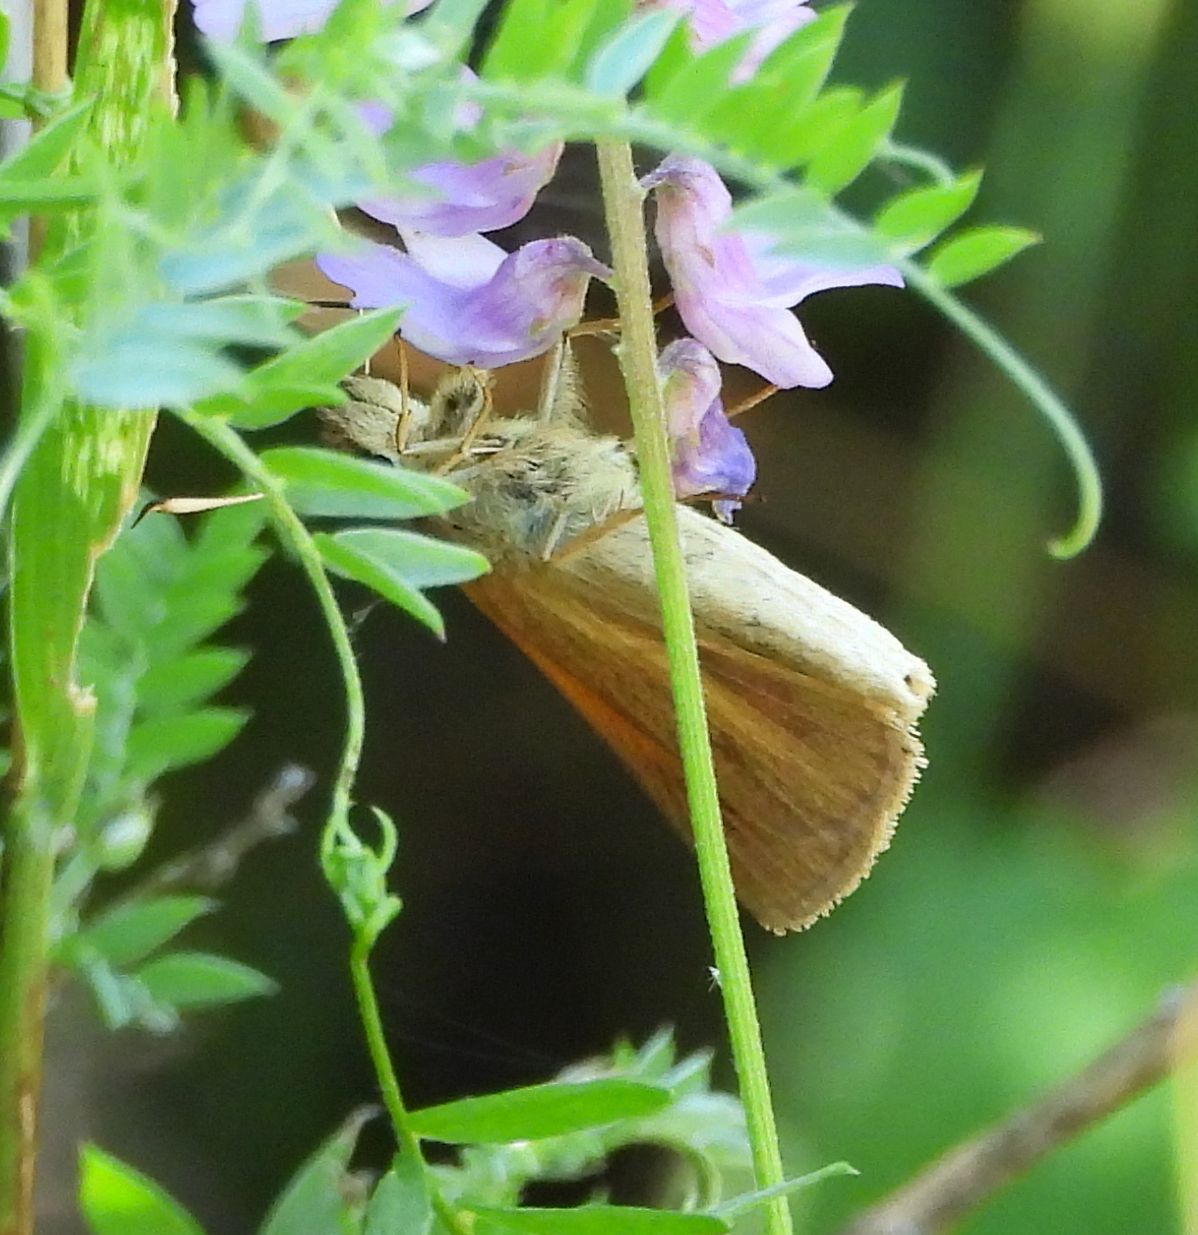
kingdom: Animalia
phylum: Arthropoda
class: Insecta
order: Lepidoptera
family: Hesperiidae
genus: Poanes
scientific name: Poanes viator
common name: Broad-winged skipper
